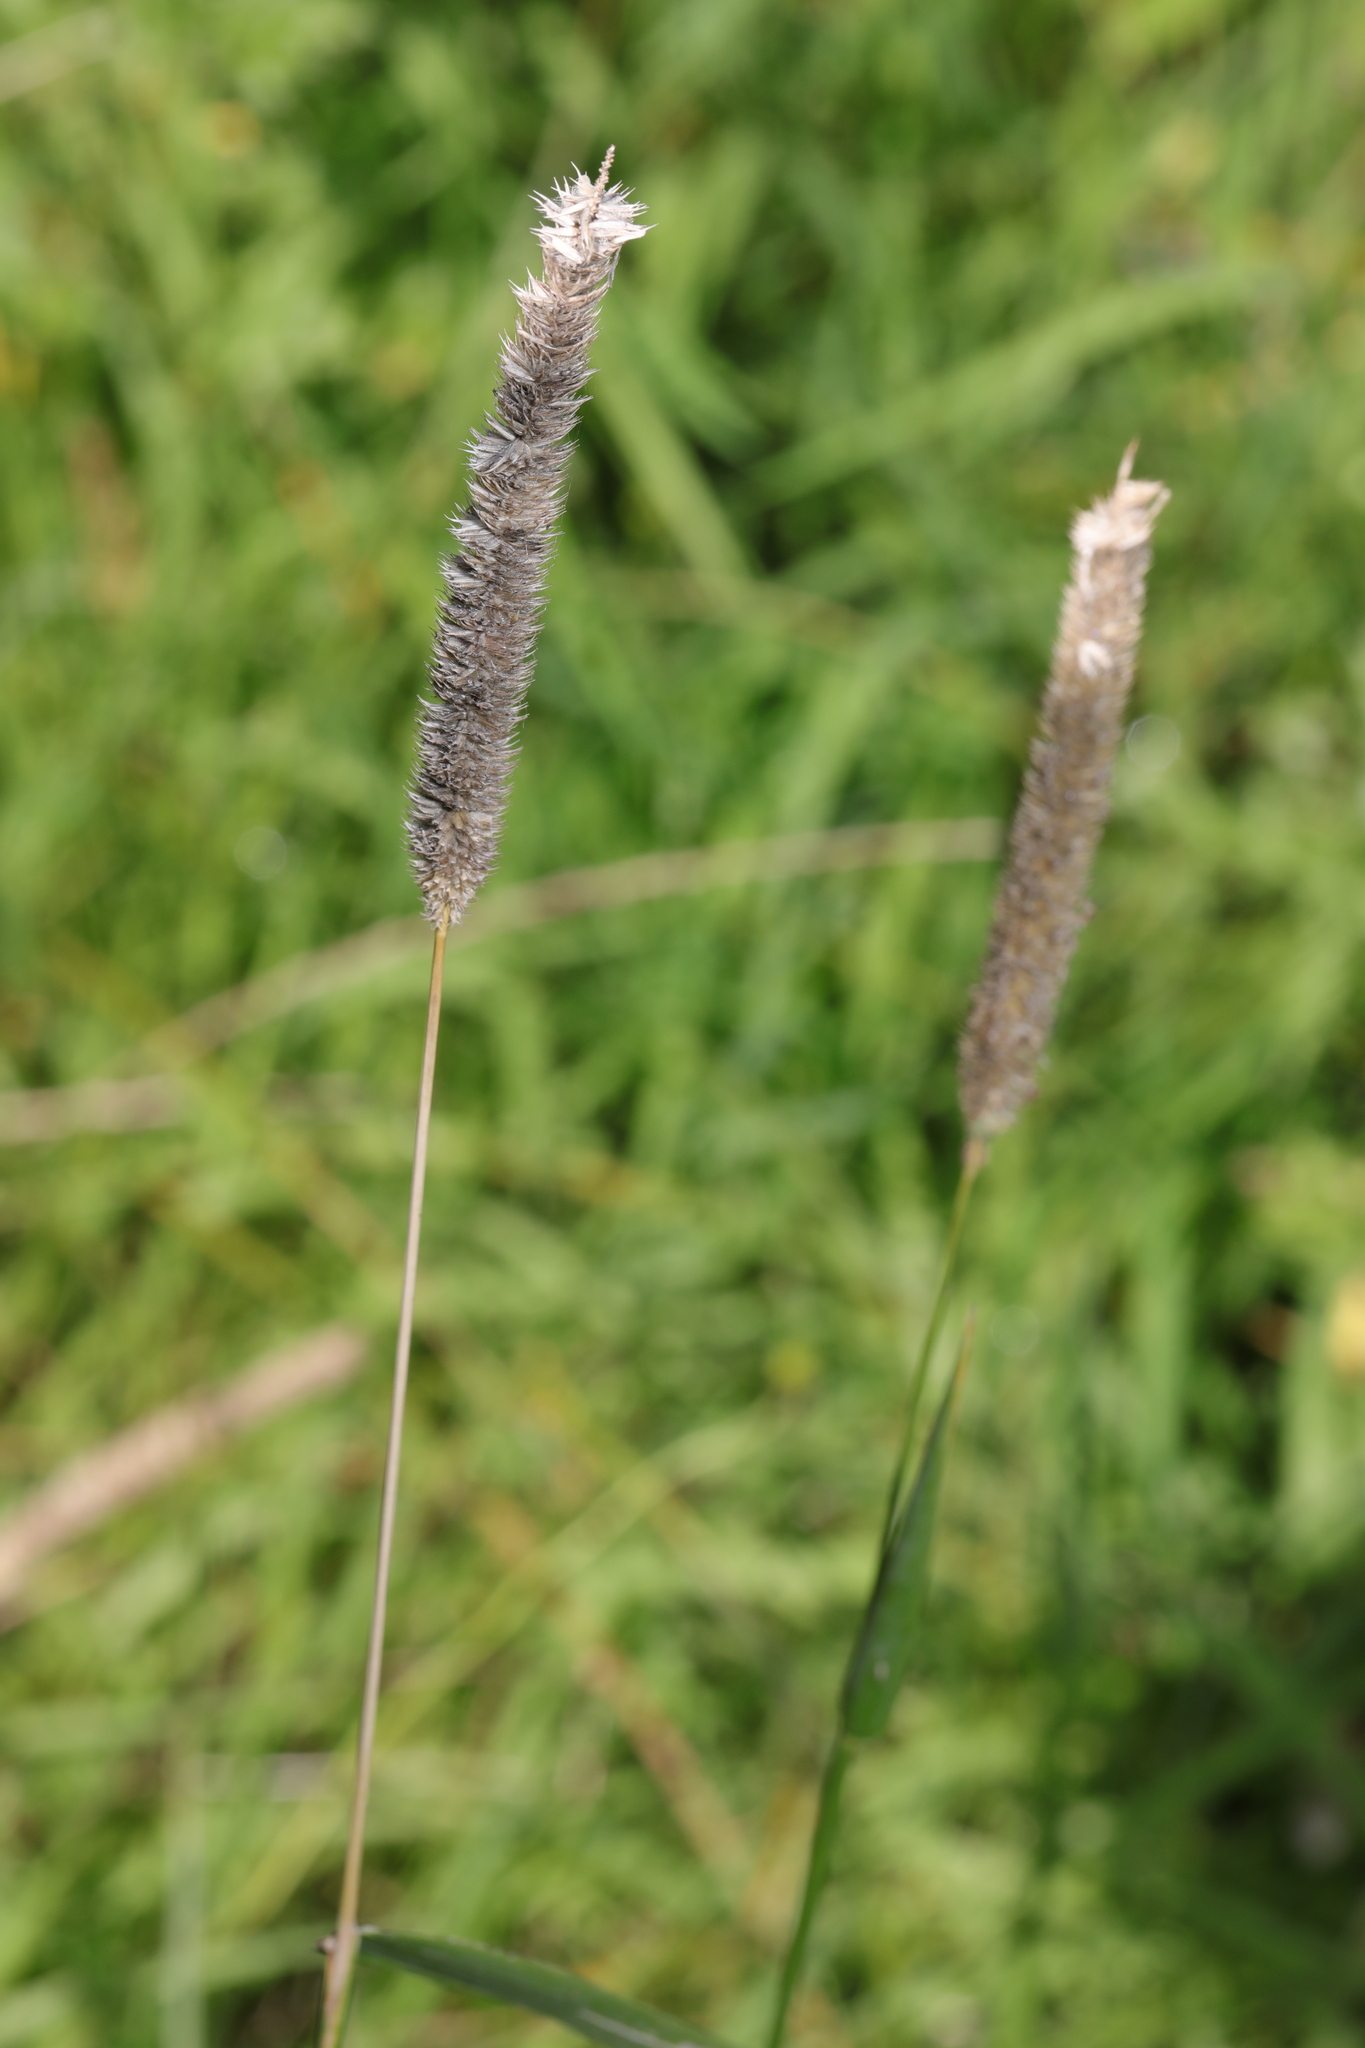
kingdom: Plantae
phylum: Tracheophyta
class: Liliopsida
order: Poales
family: Poaceae
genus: Phleum
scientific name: Phleum pratense
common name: Timothy grass
